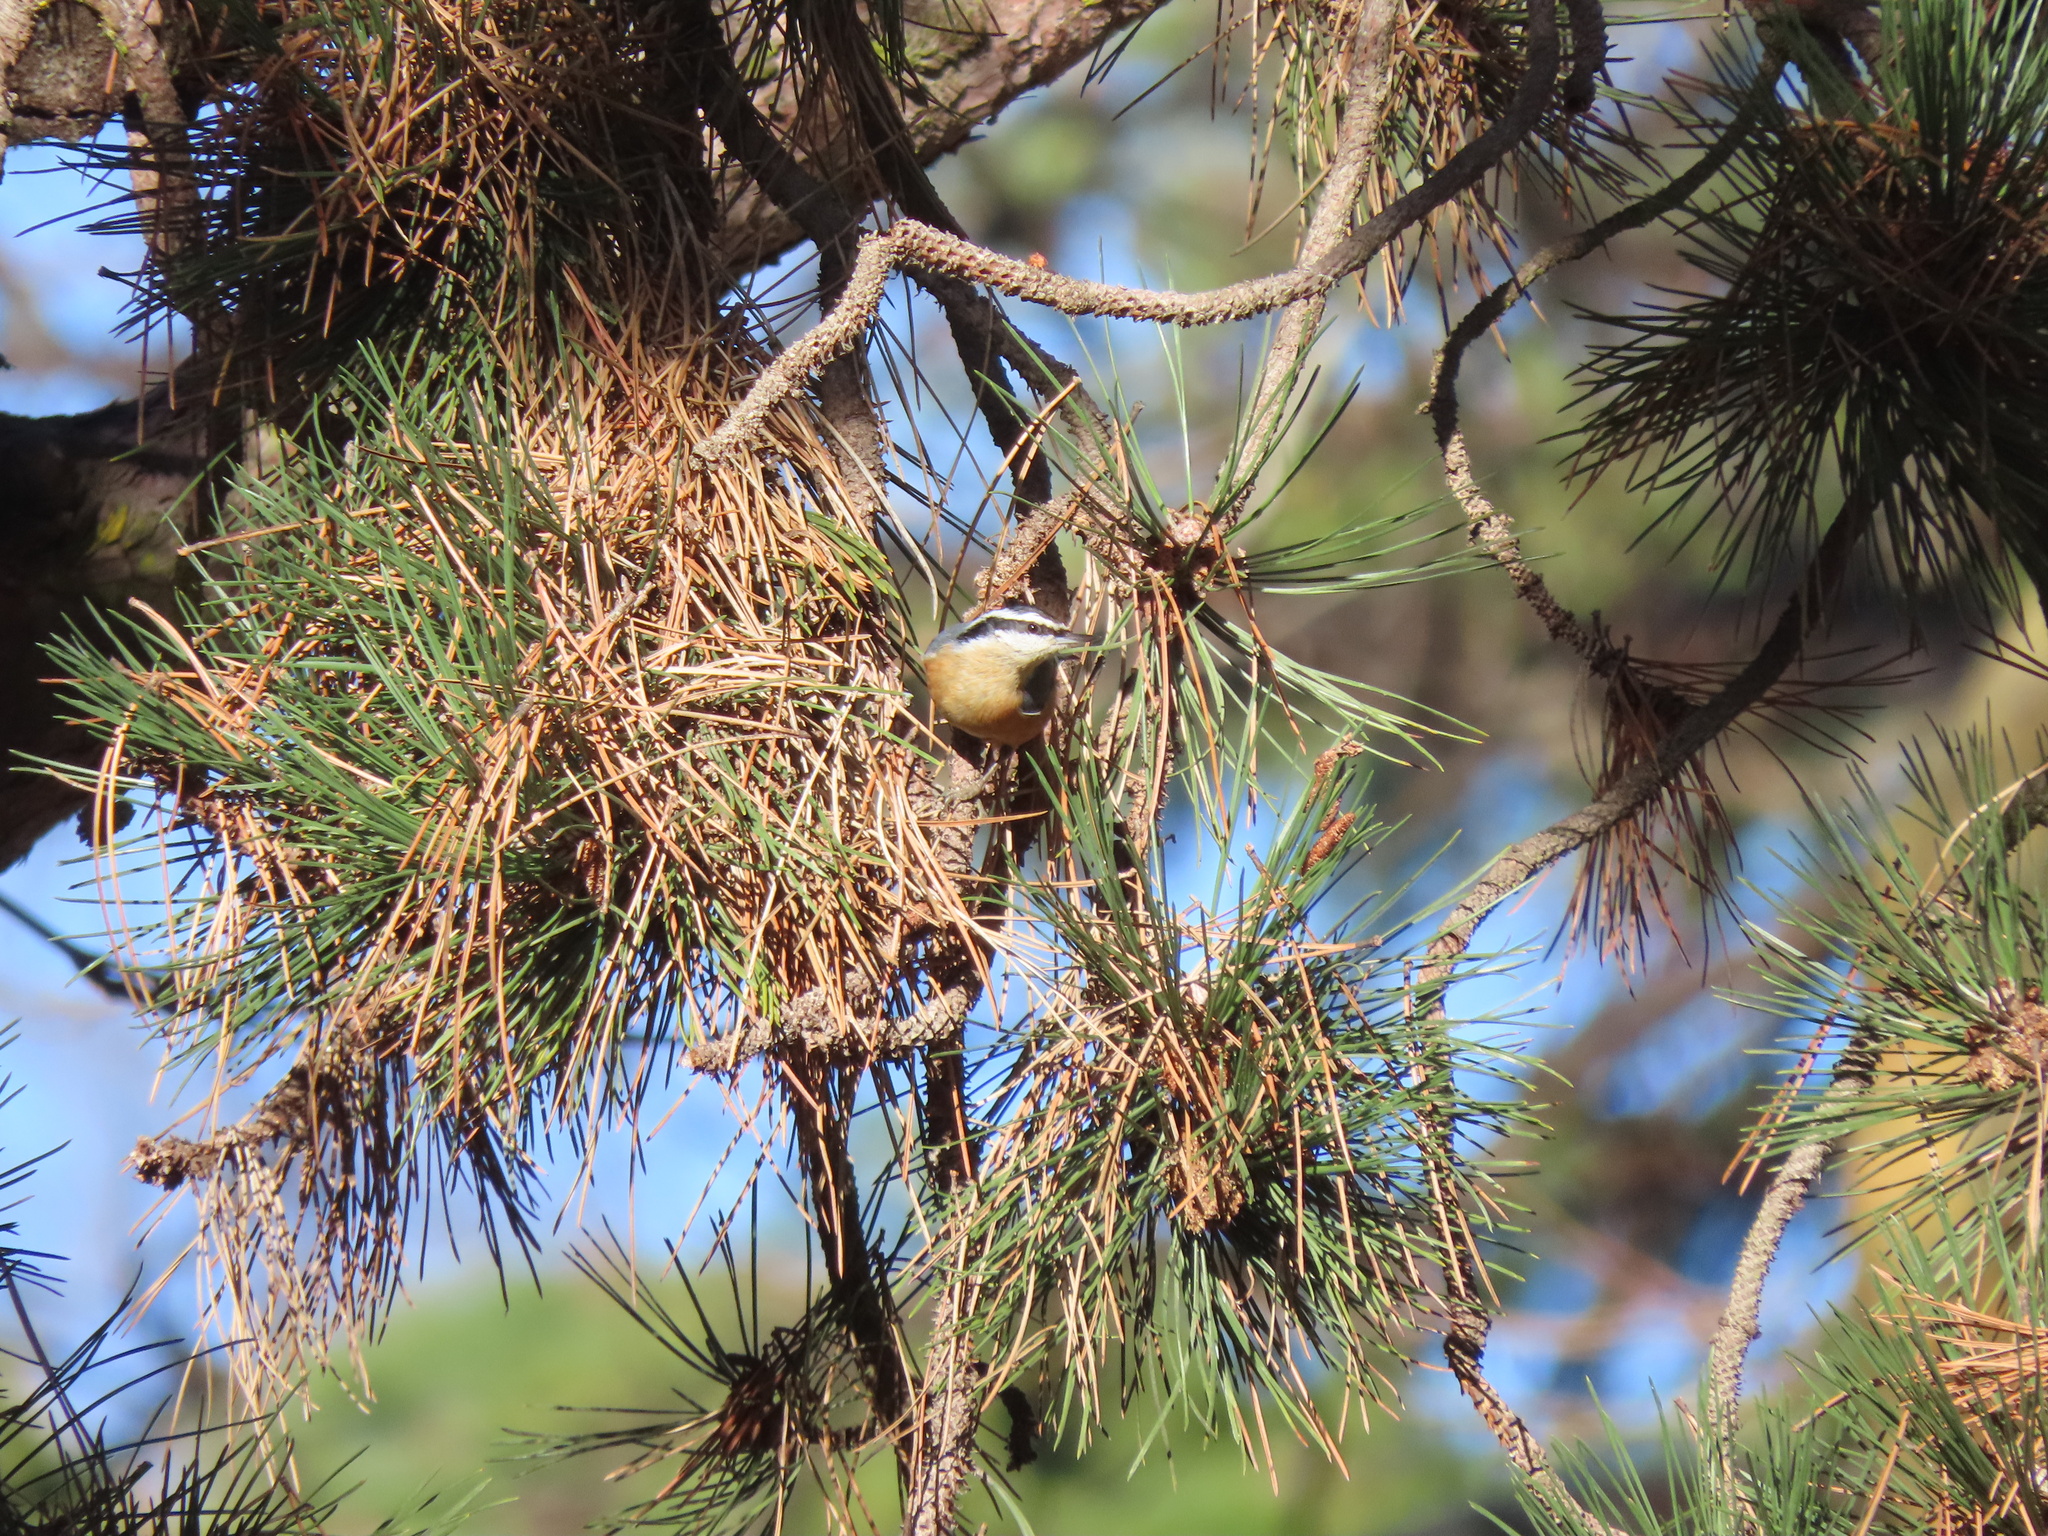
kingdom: Animalia
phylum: Chordata
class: Aves
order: Passeriformes
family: Sittidae
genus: Sitta
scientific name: Sitta canadensis
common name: Red-breasted nuthatch
